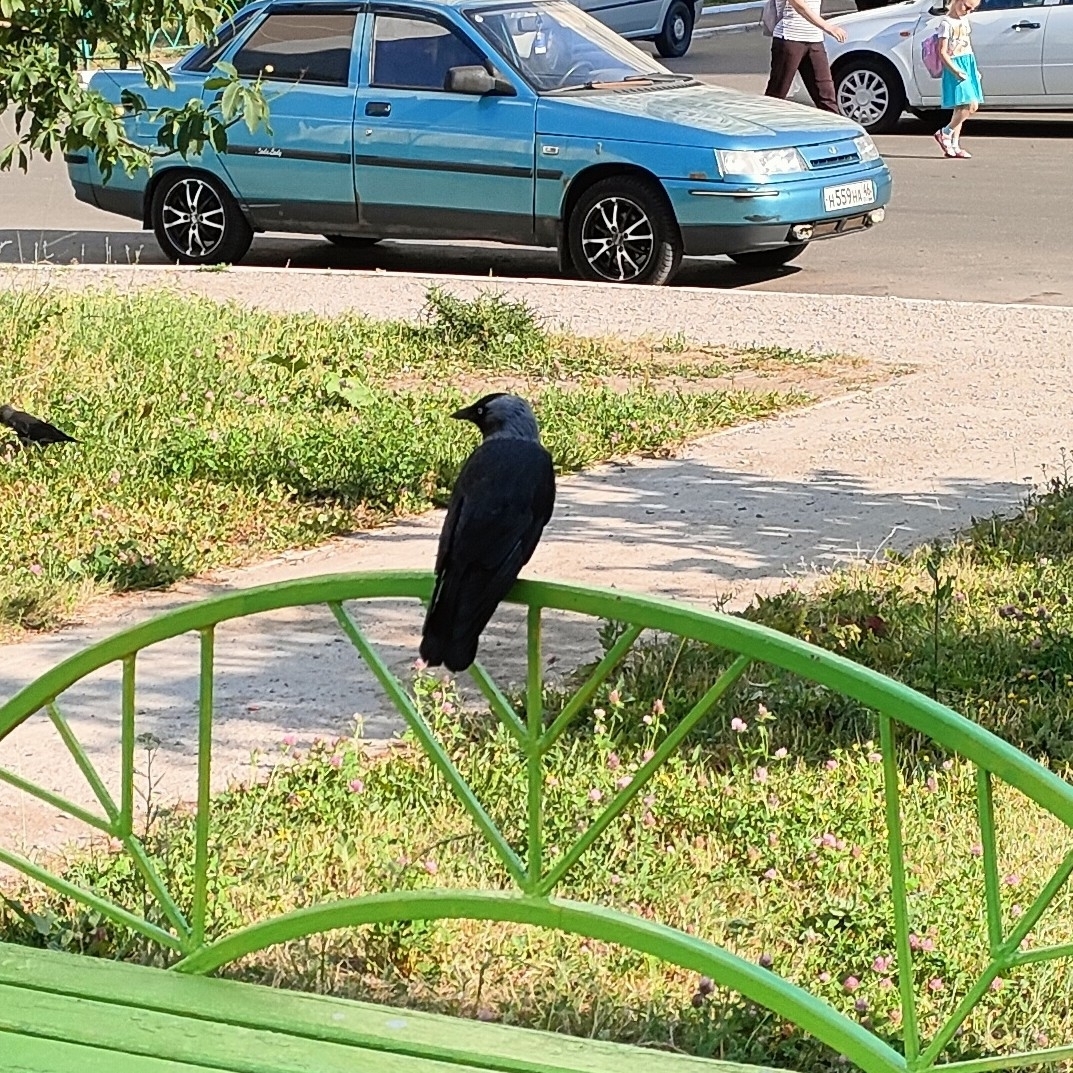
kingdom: Animalia
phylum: Chordata
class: Aves
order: Passeriformes
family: Corvidae
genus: Coloeus
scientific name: Coloeus monedula
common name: Western jackdaw
